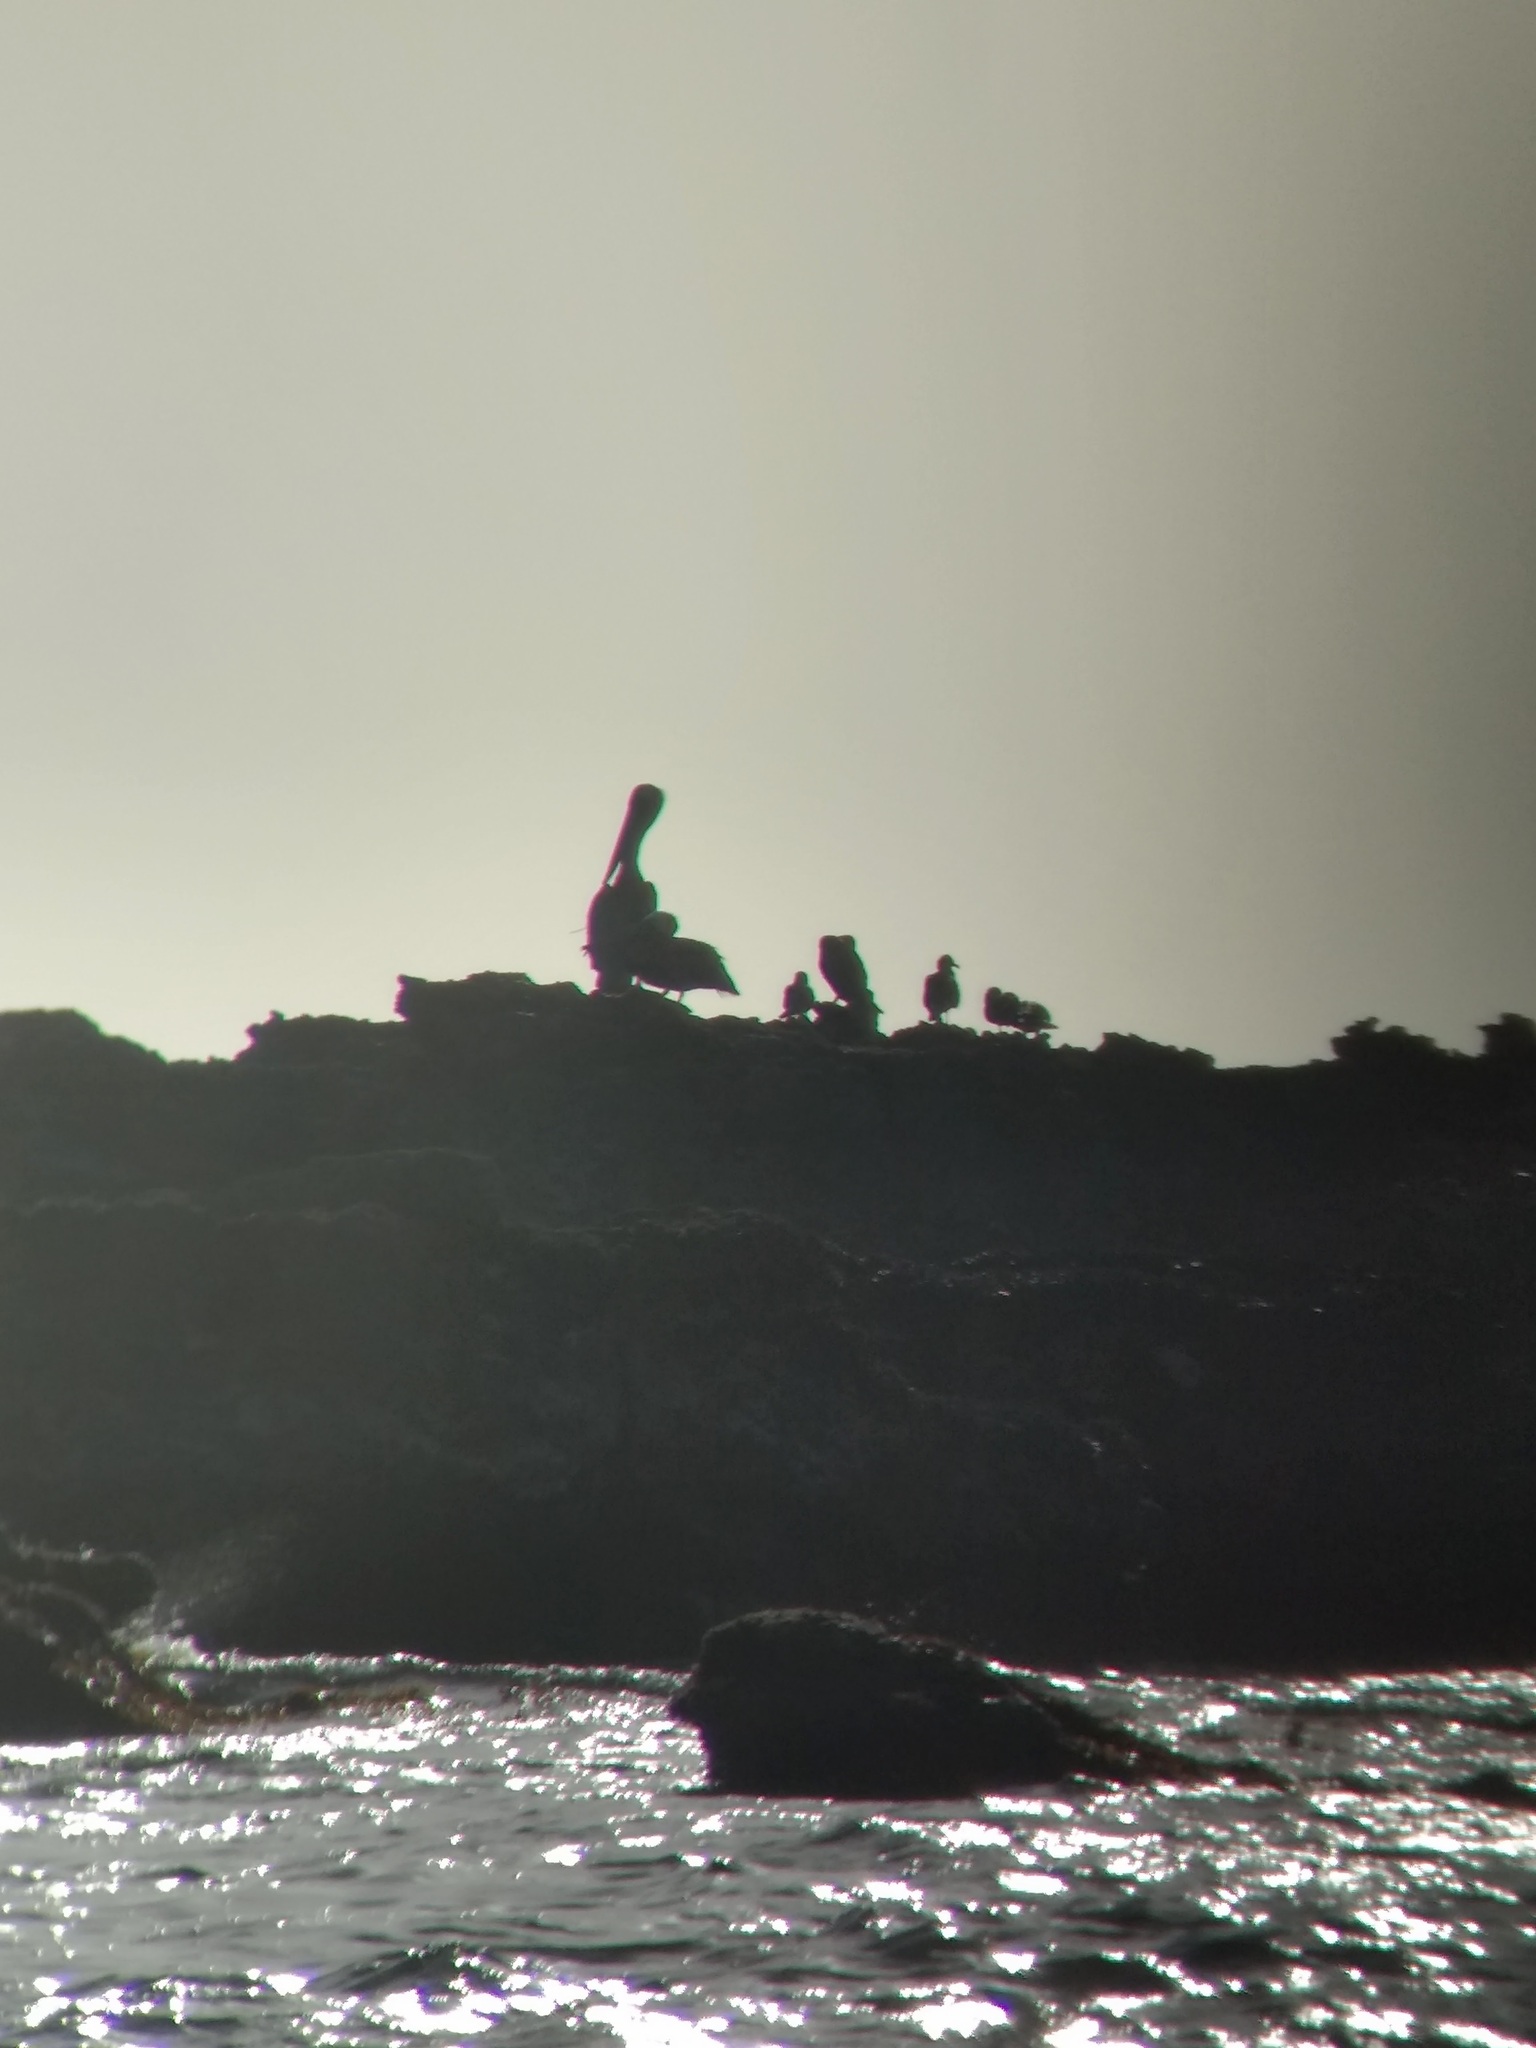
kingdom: Animalia
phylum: Chordata
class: Aves
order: Pelecaniformes
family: Pelecanidae
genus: Pelecanus
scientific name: Pelecanus occidentalis
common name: Brown pelican
